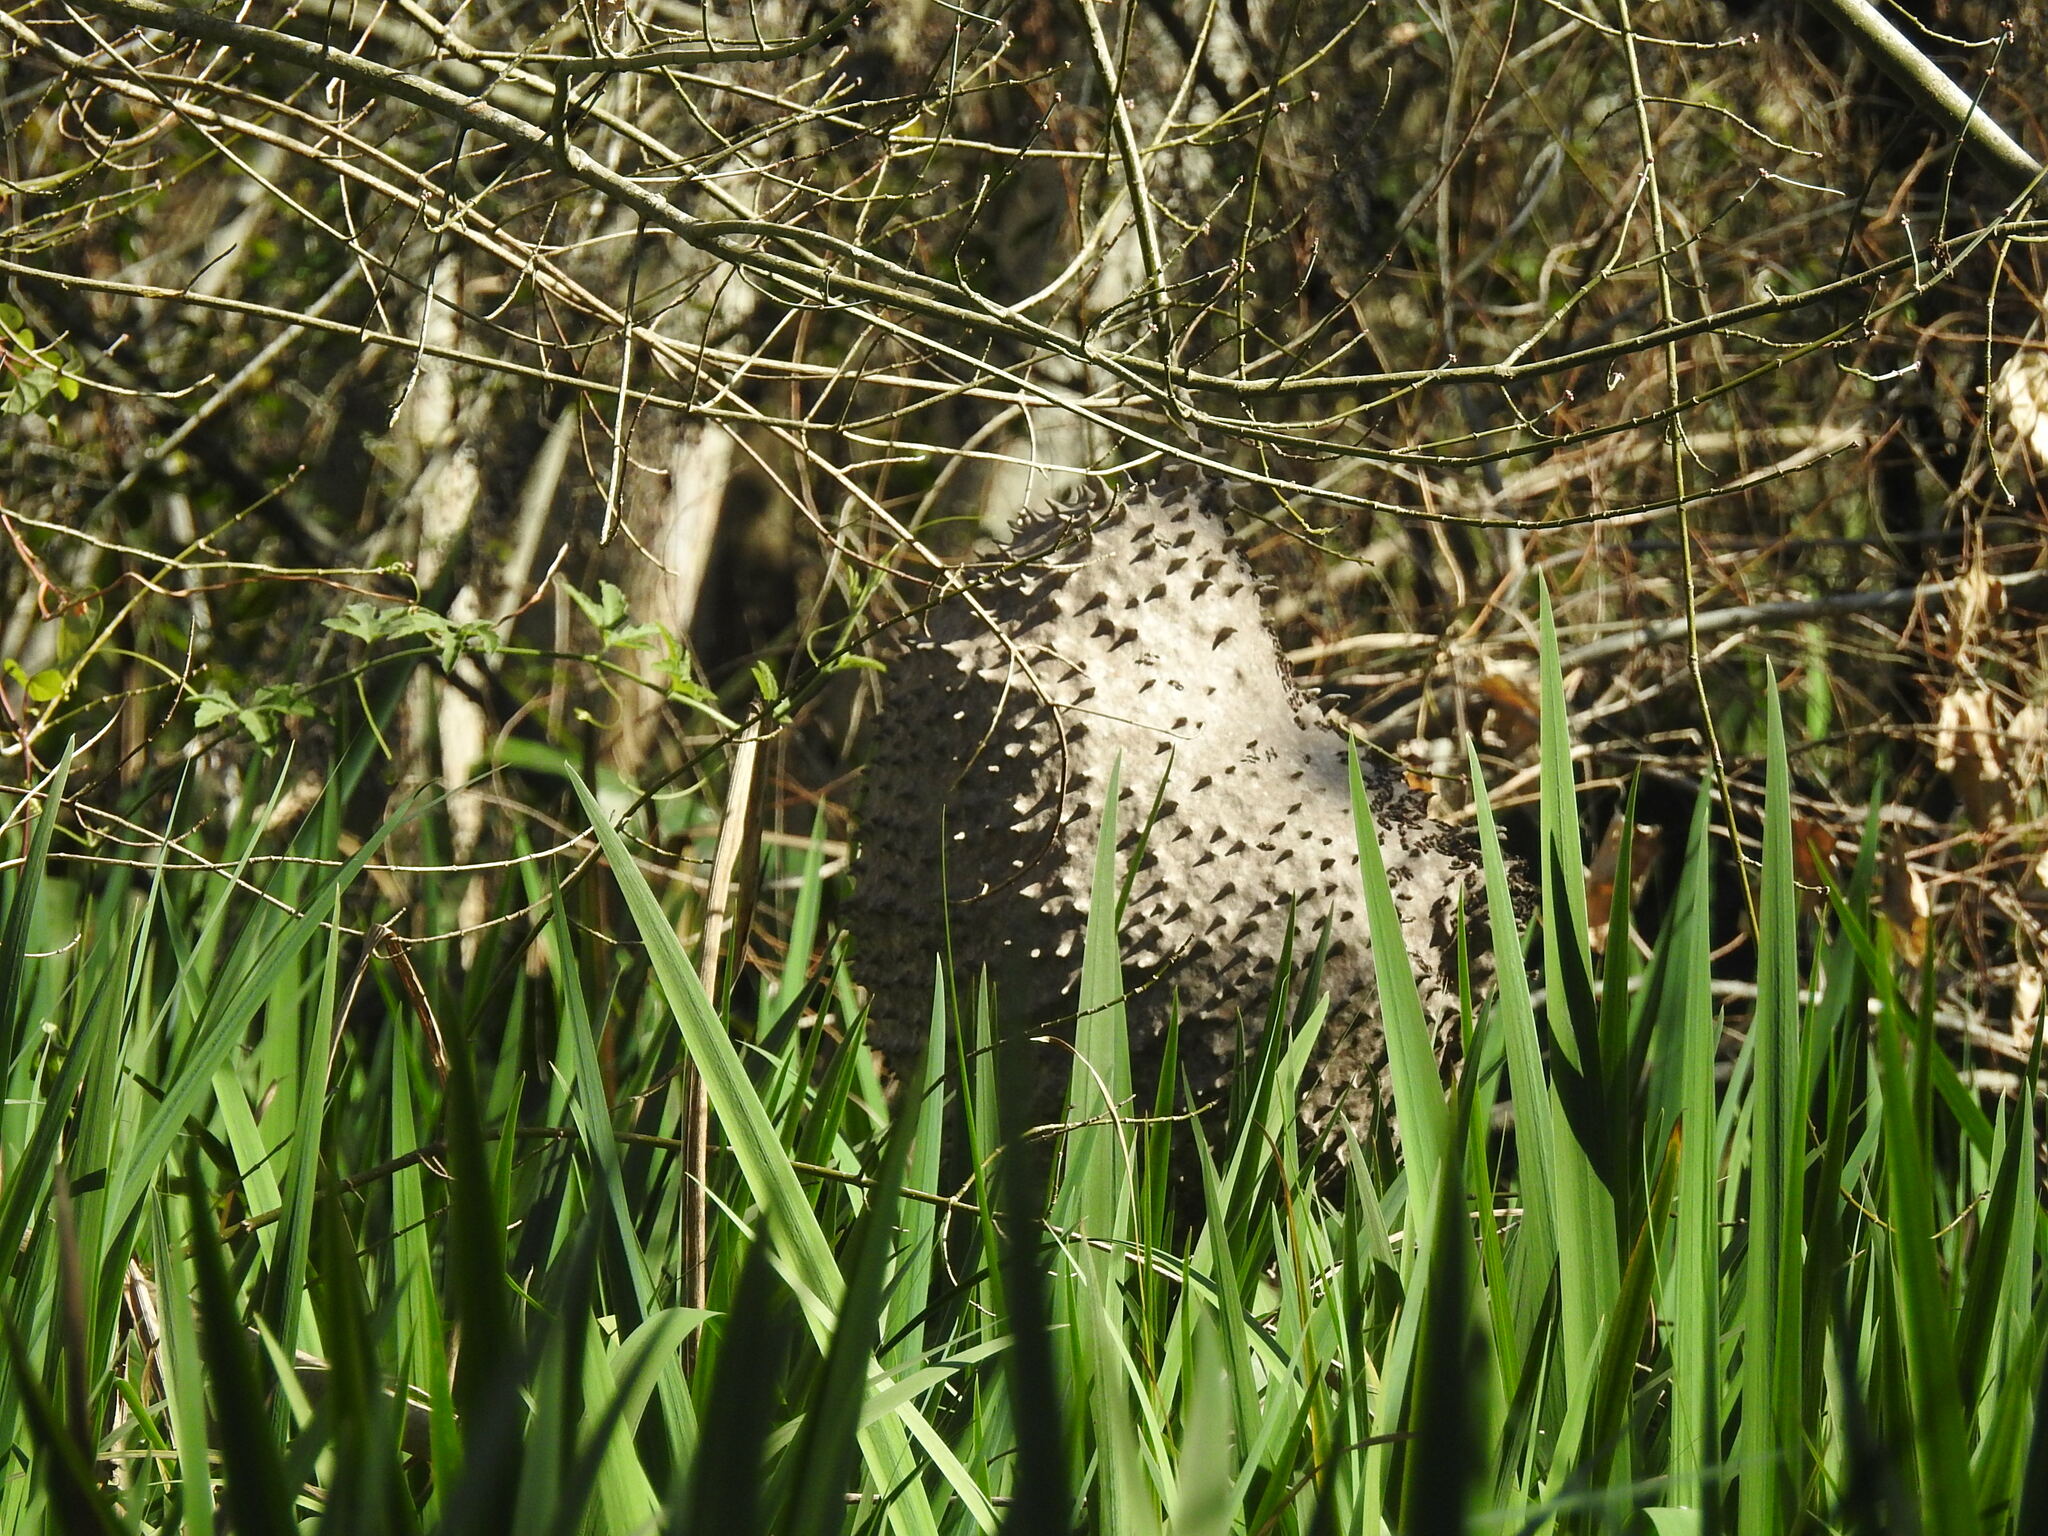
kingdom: Animalia
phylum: Arthropoda
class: Insecta
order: Hymenoptera
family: Eumenidae
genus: Polybia
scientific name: Polybia scutellaris
